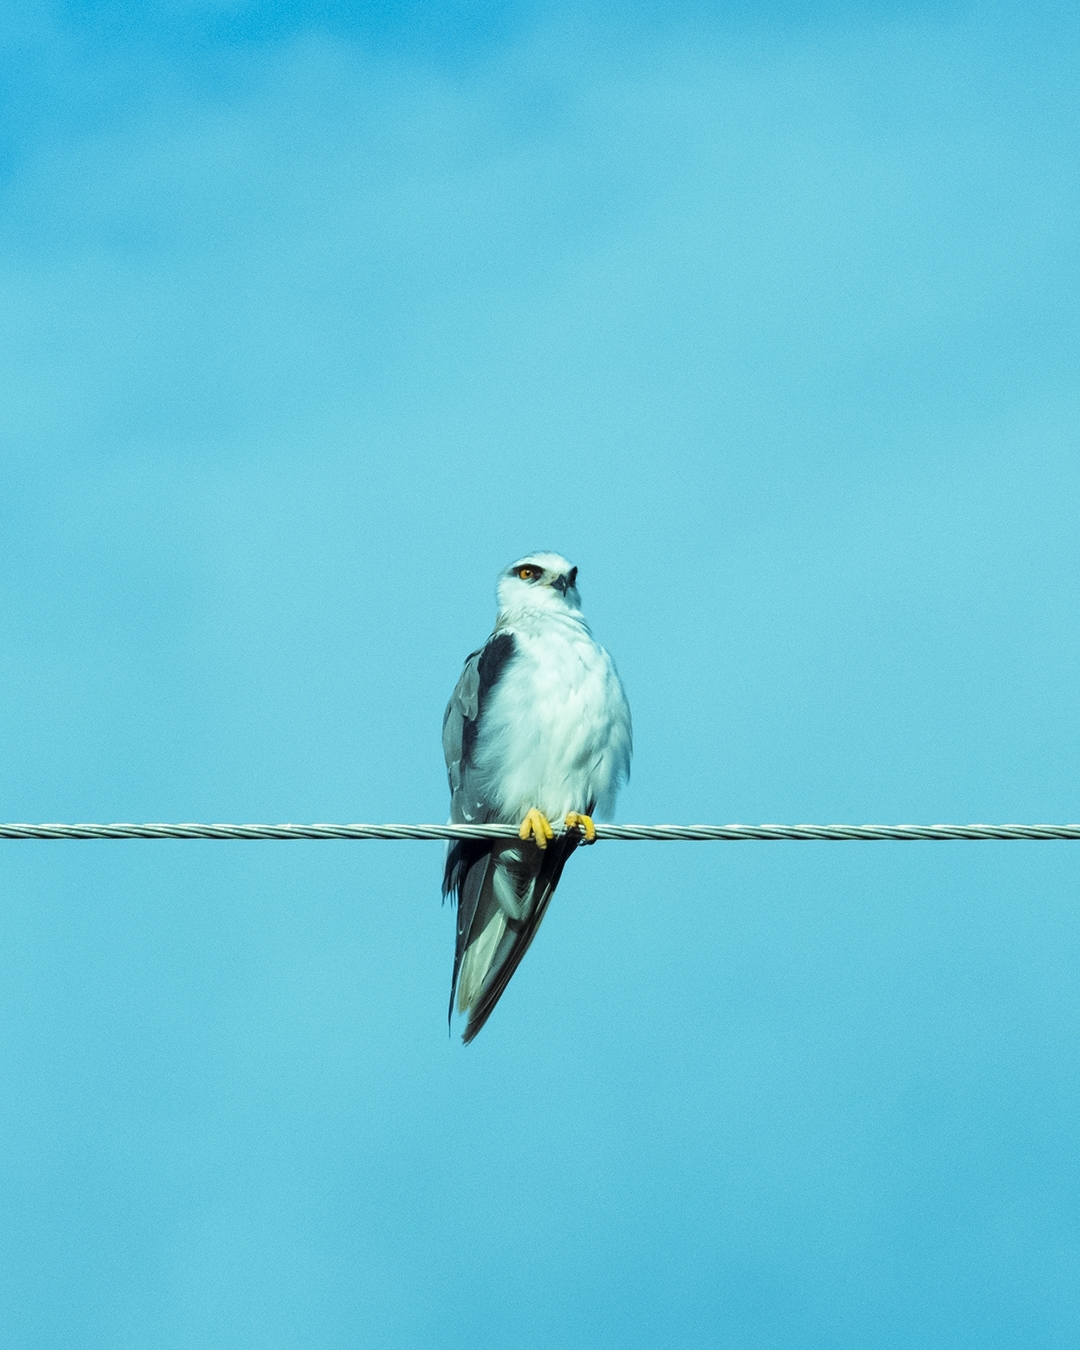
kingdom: Animalia
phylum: Chordata
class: Aves
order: Accipitriformes
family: Accipitridae
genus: Elanus
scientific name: Elanus caeruleus
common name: Black-winged kite
